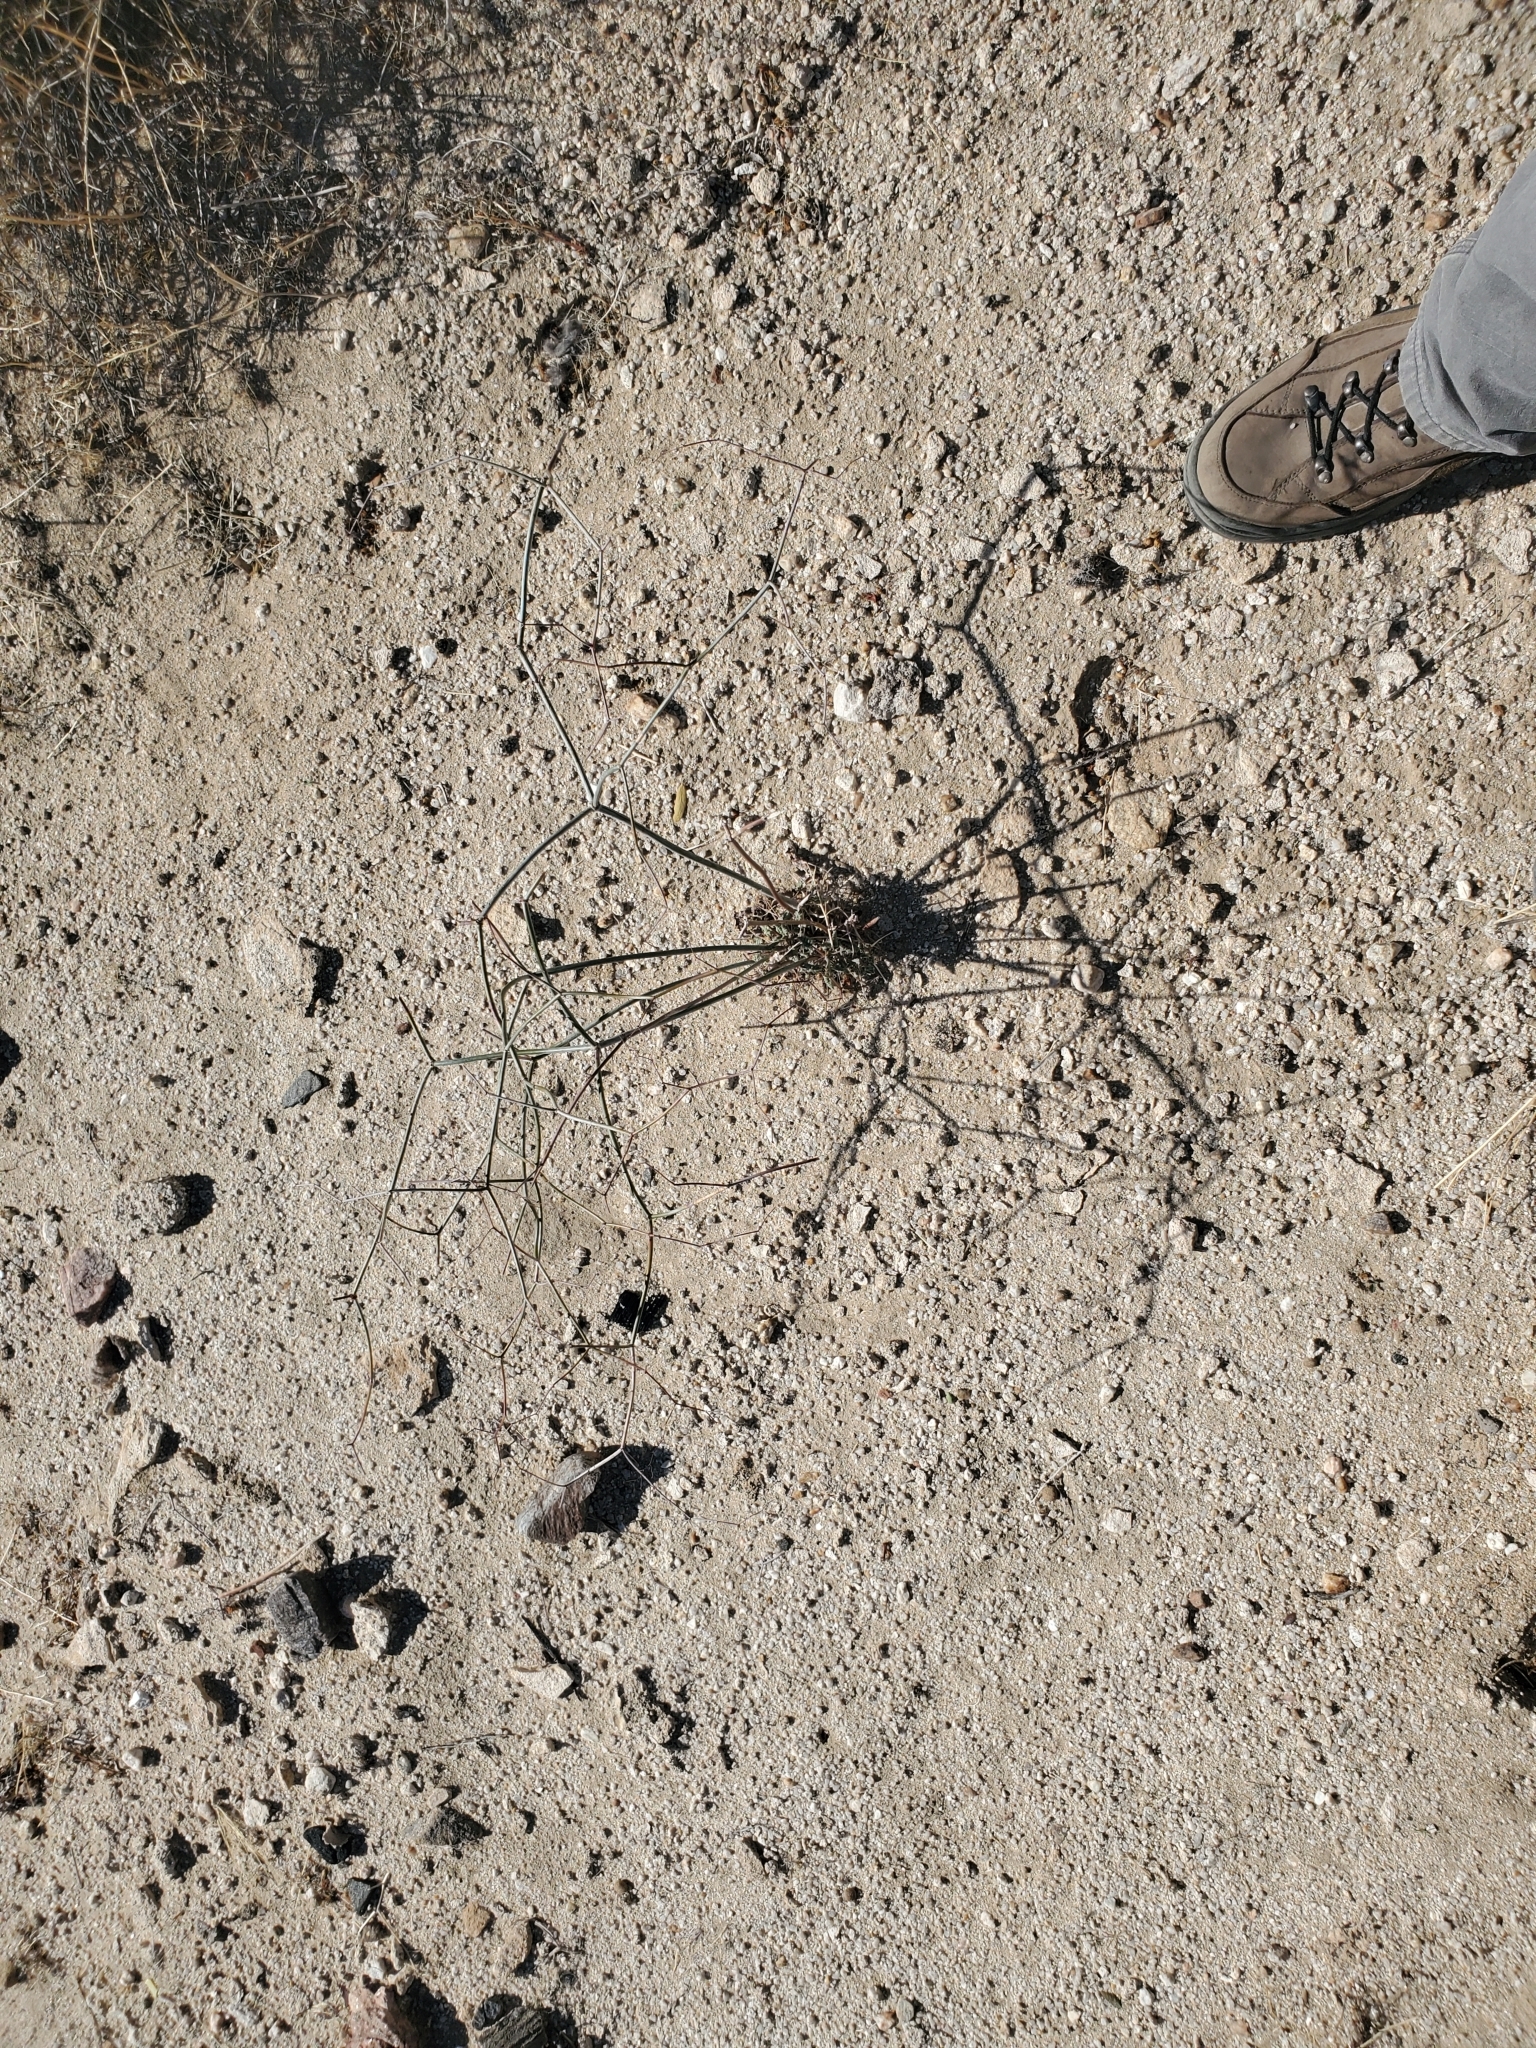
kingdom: Plantae
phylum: Tracheophyta
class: Magnoliopsida
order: Caryophyllales
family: Polygonaceae
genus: Eriogonum
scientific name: Eriogonum inflatum
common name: Desert trumpet
